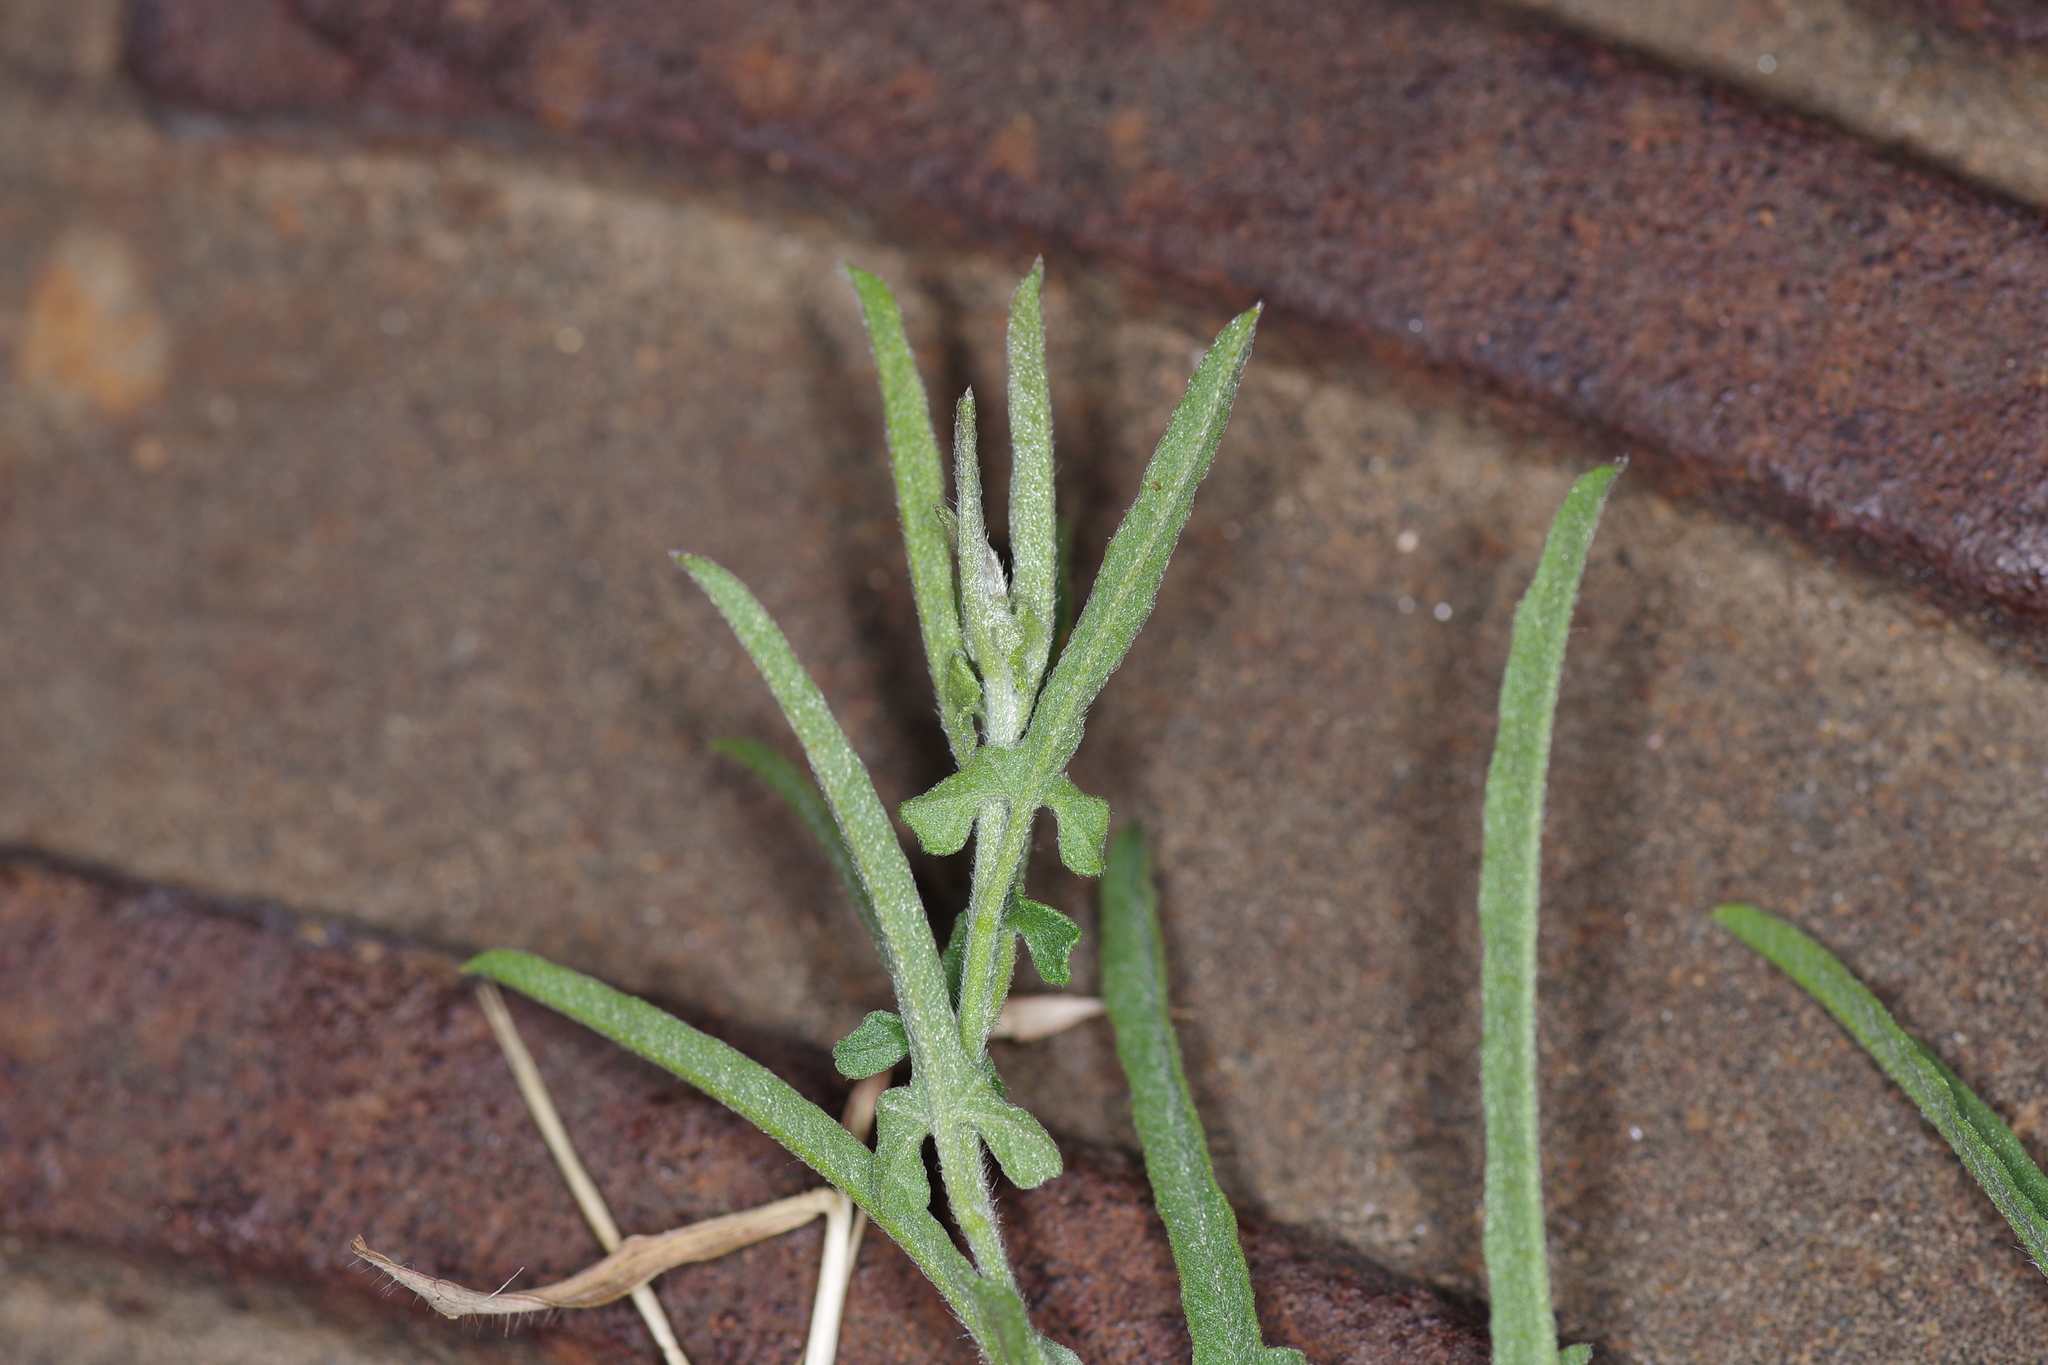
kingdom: Plantae
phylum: Tracheophyta
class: Magnoliopsida
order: Solanales
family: Convolvulaceae
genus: Convolvulus
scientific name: Convolvulus equitans
